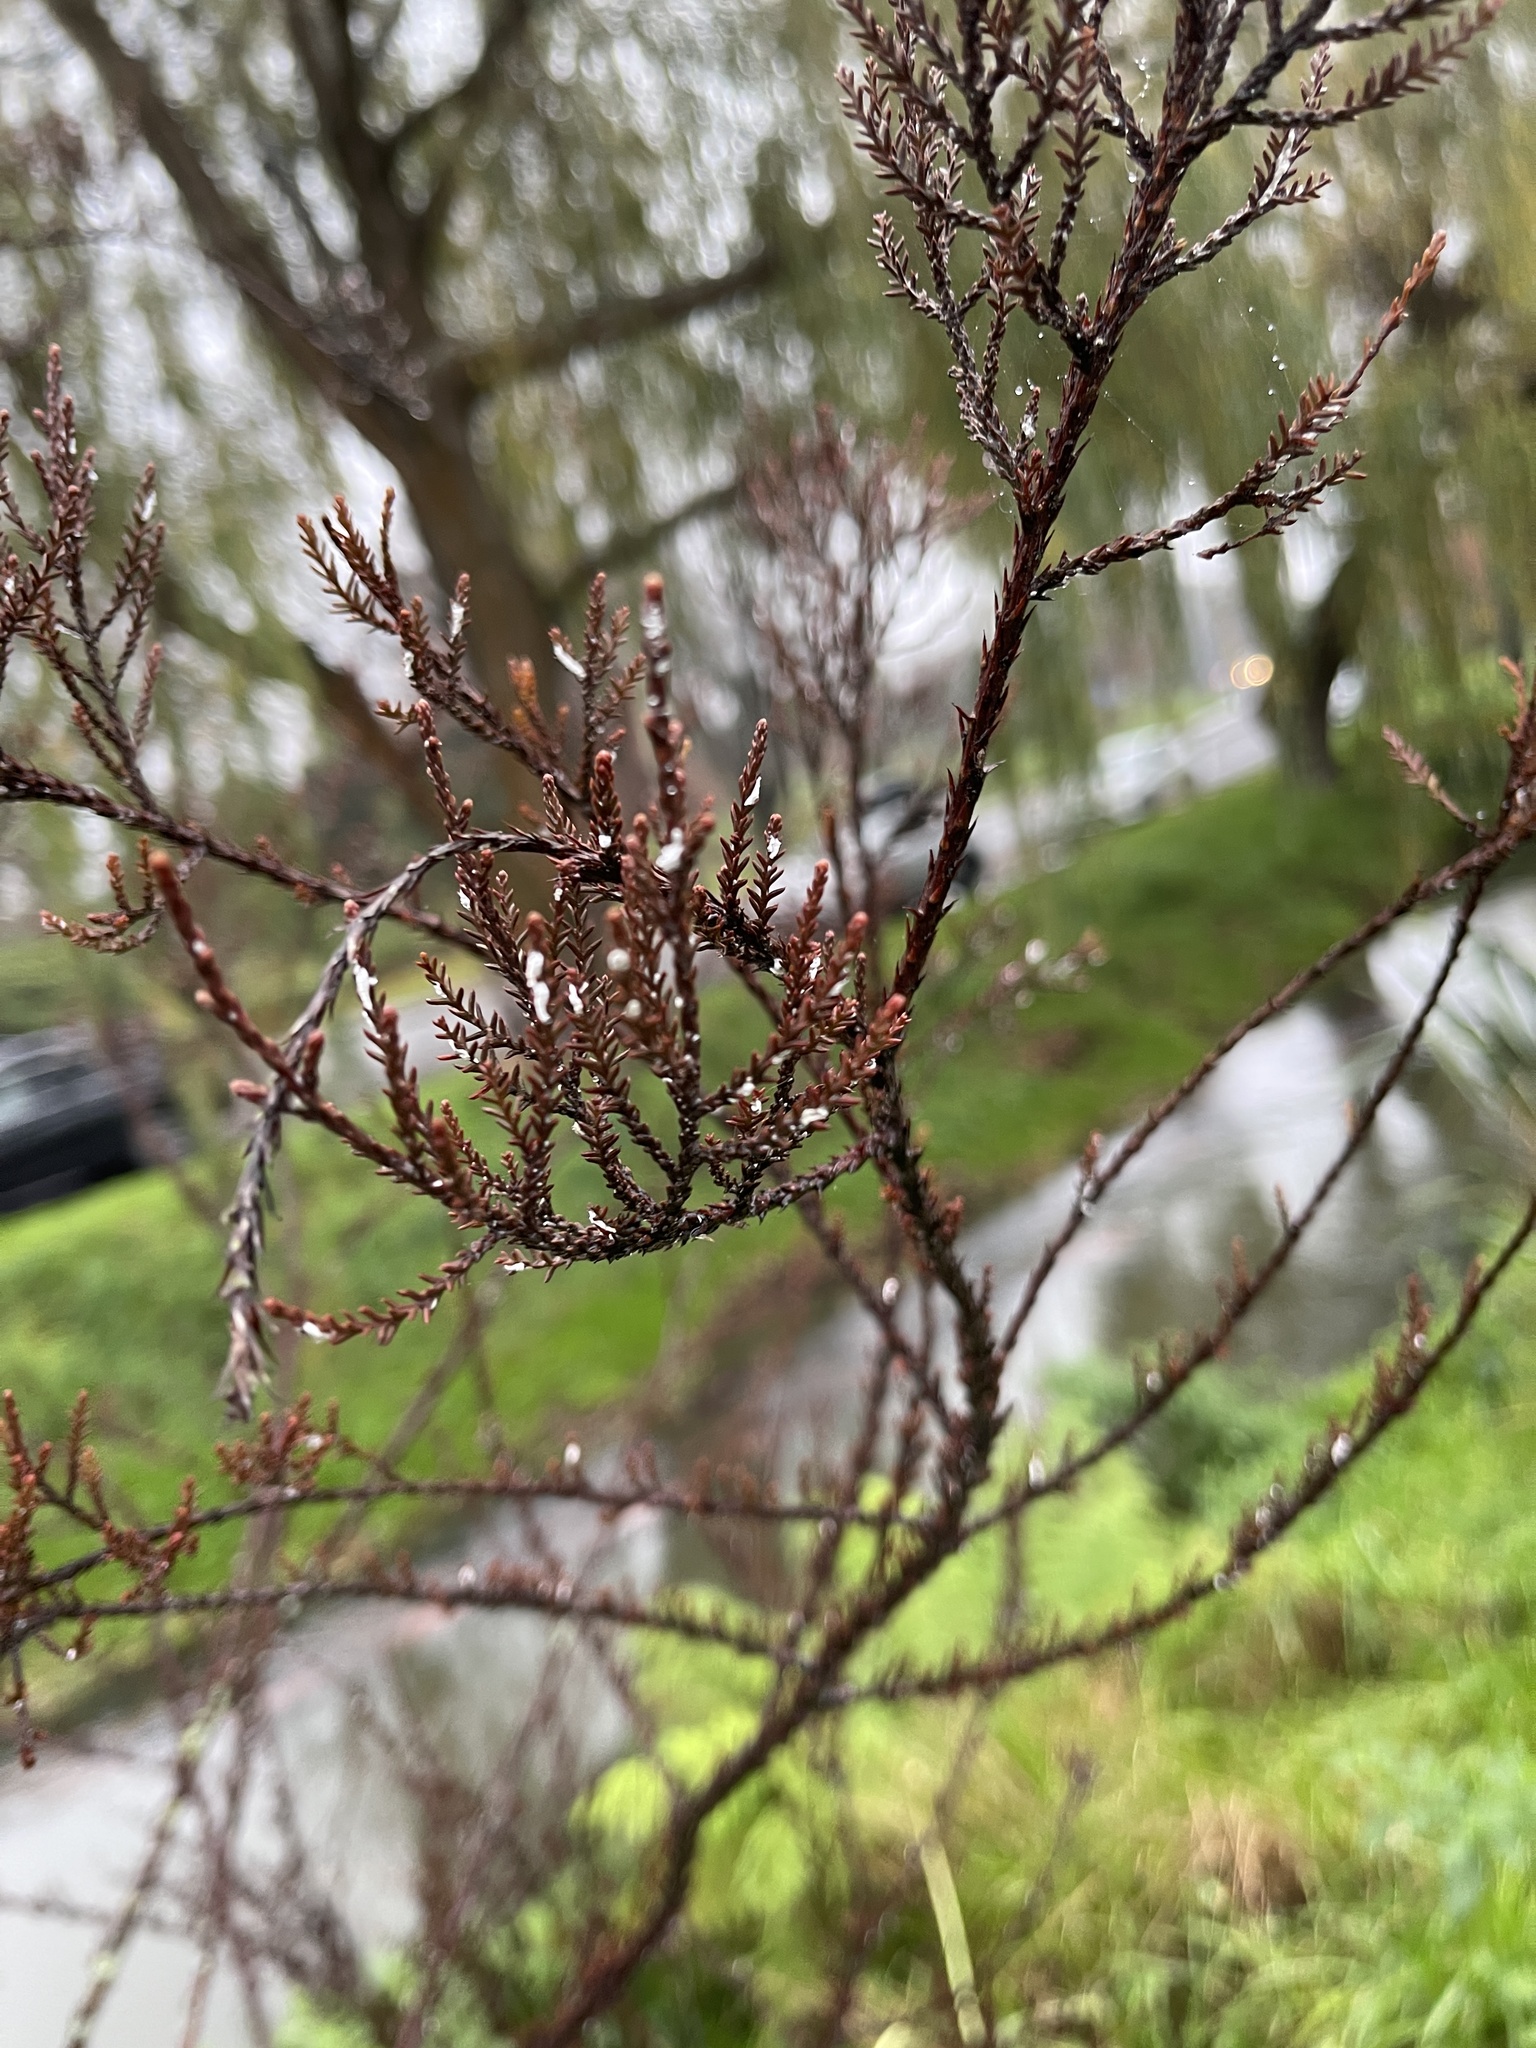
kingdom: Plantae
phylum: Tracheophyta
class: Pinopsida
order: Pinales
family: Podocarpaceae
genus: Dacrycarpus
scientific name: Dacrycarpus dacrydioides
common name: White pine
